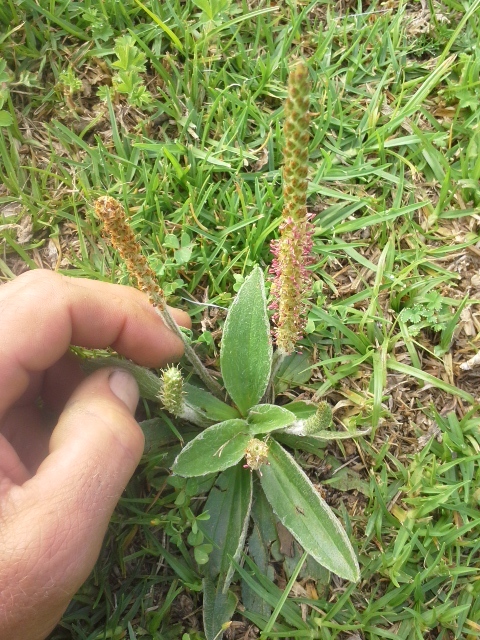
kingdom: Plantae
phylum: Tracheophyta
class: Magnoliopsida
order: Lamiales
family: Plantaginaceae
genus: Plantago
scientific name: Plantago tomentosa
